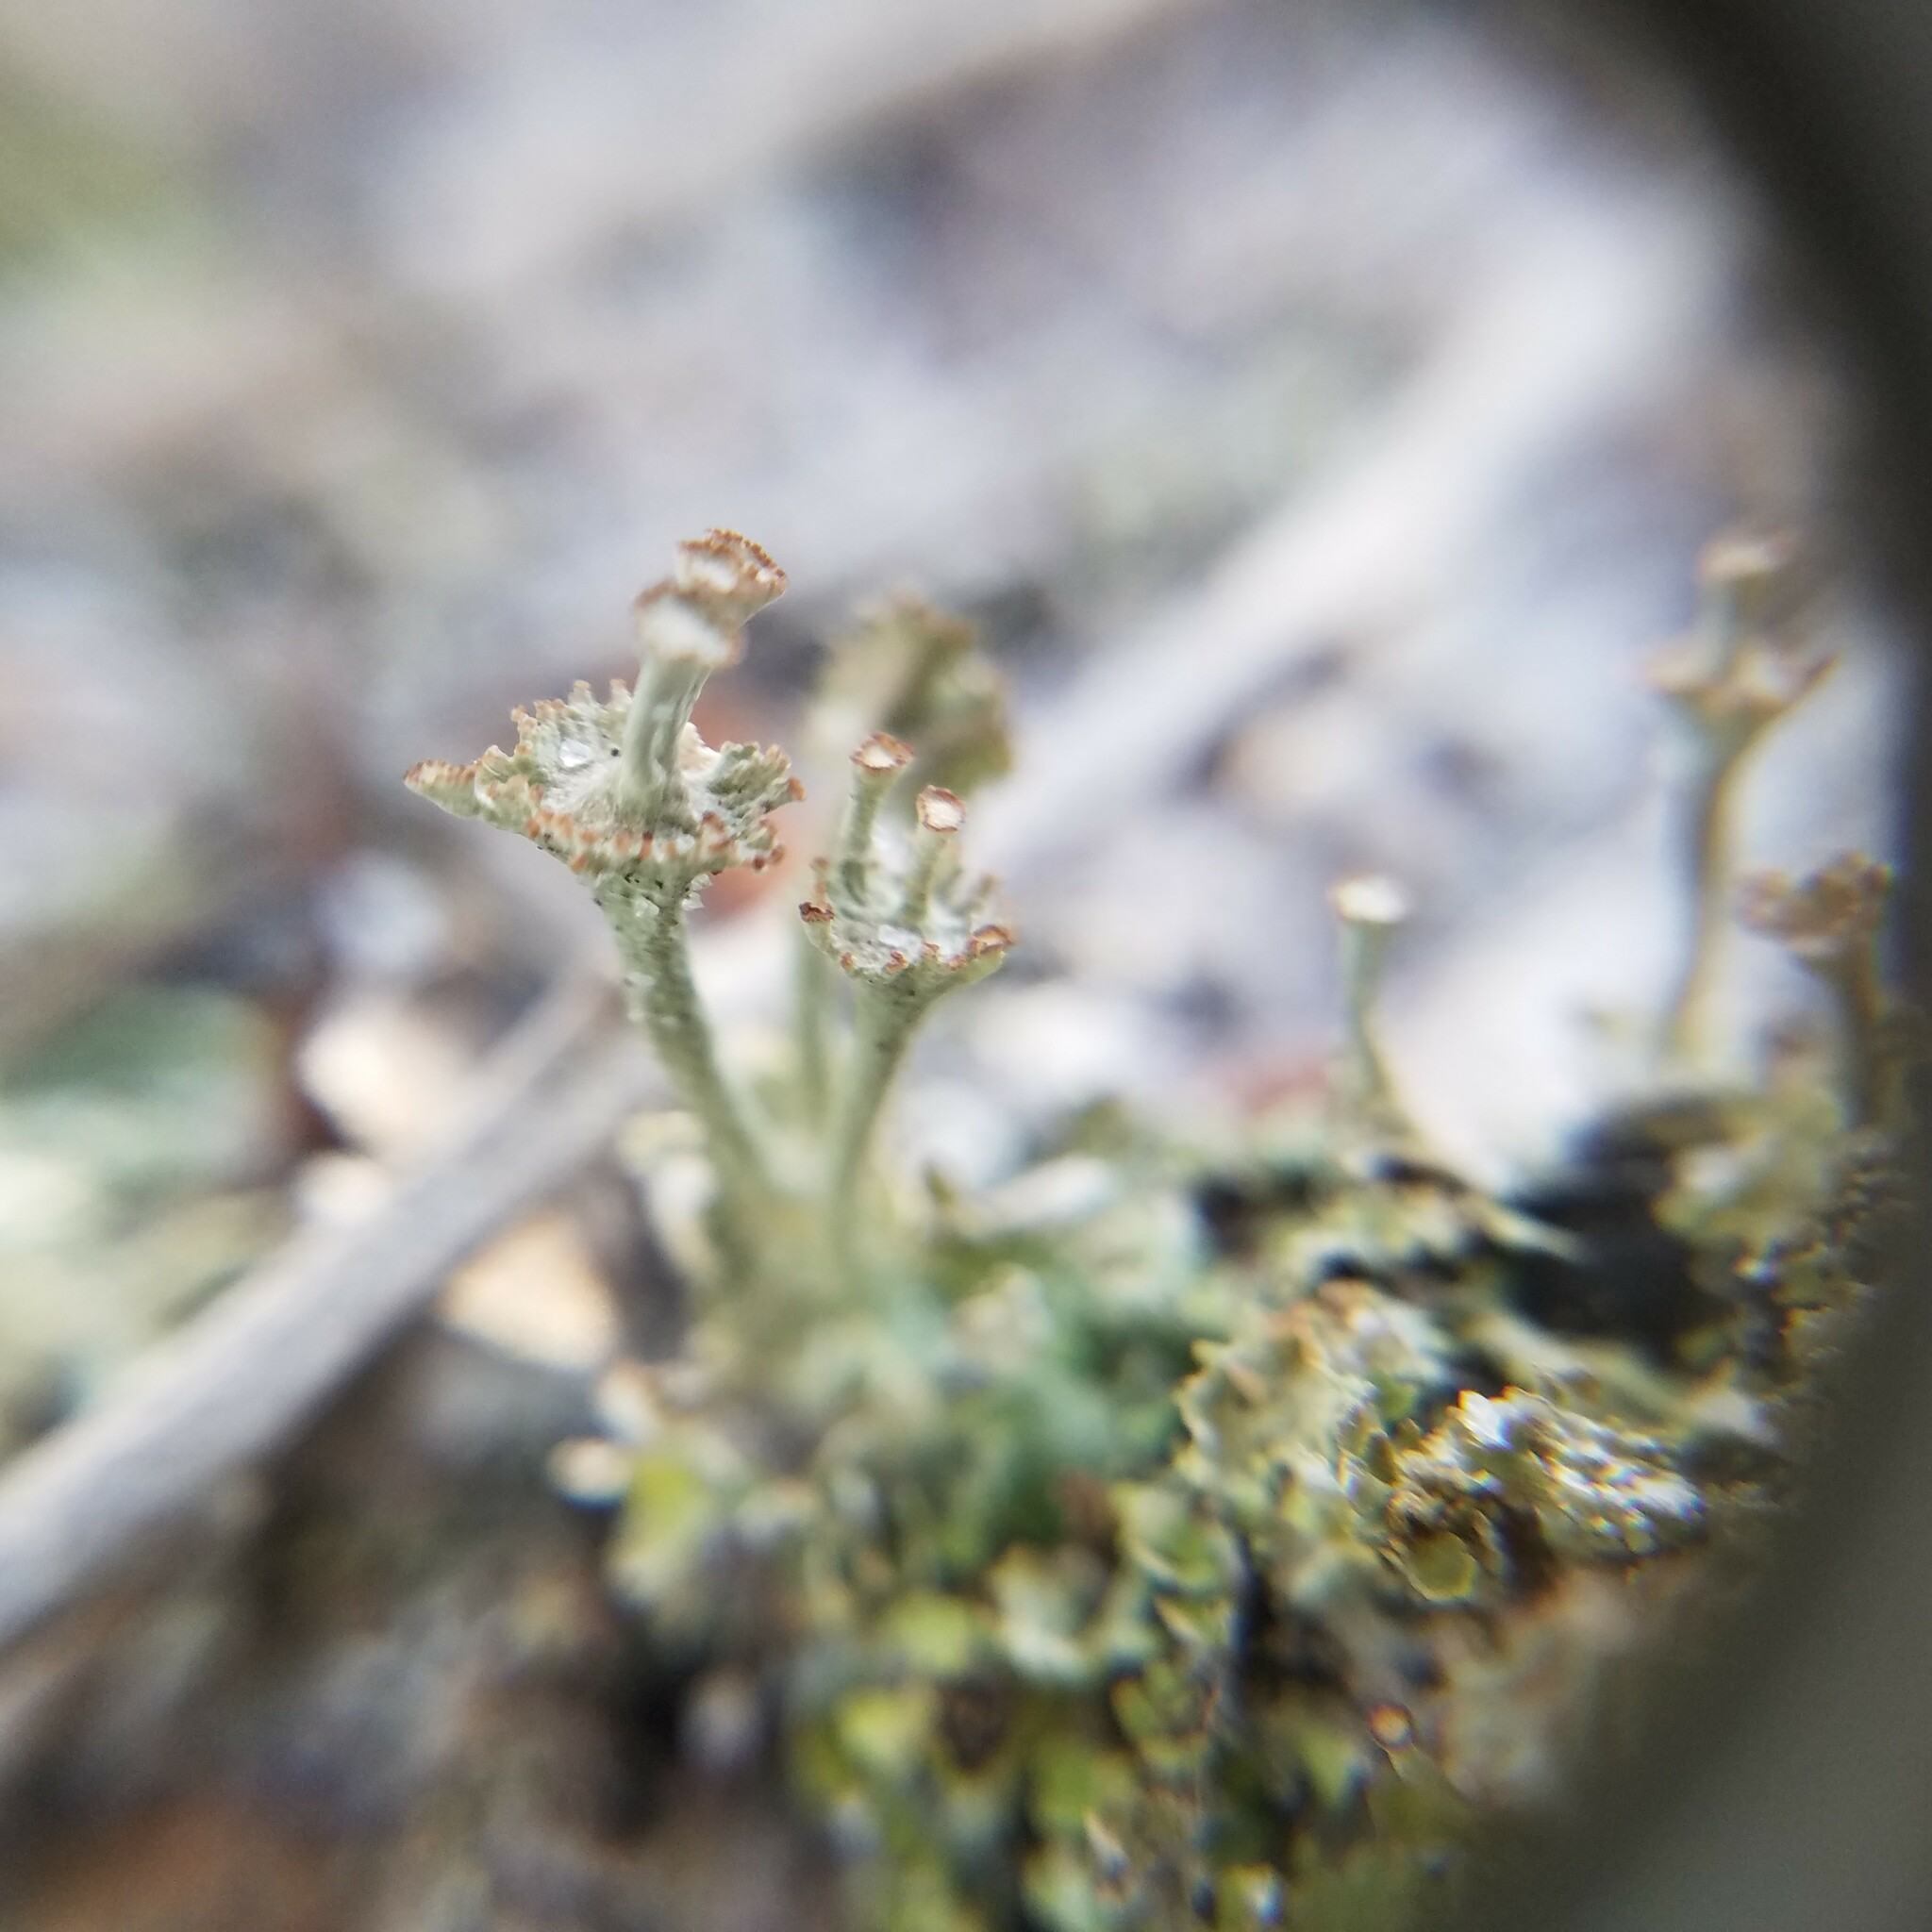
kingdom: Fungi
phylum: Ascomycota
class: Lecanoromycetes
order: Lecanorales
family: Cladoniaceae
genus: Cladonia
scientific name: Cladonia rappii
